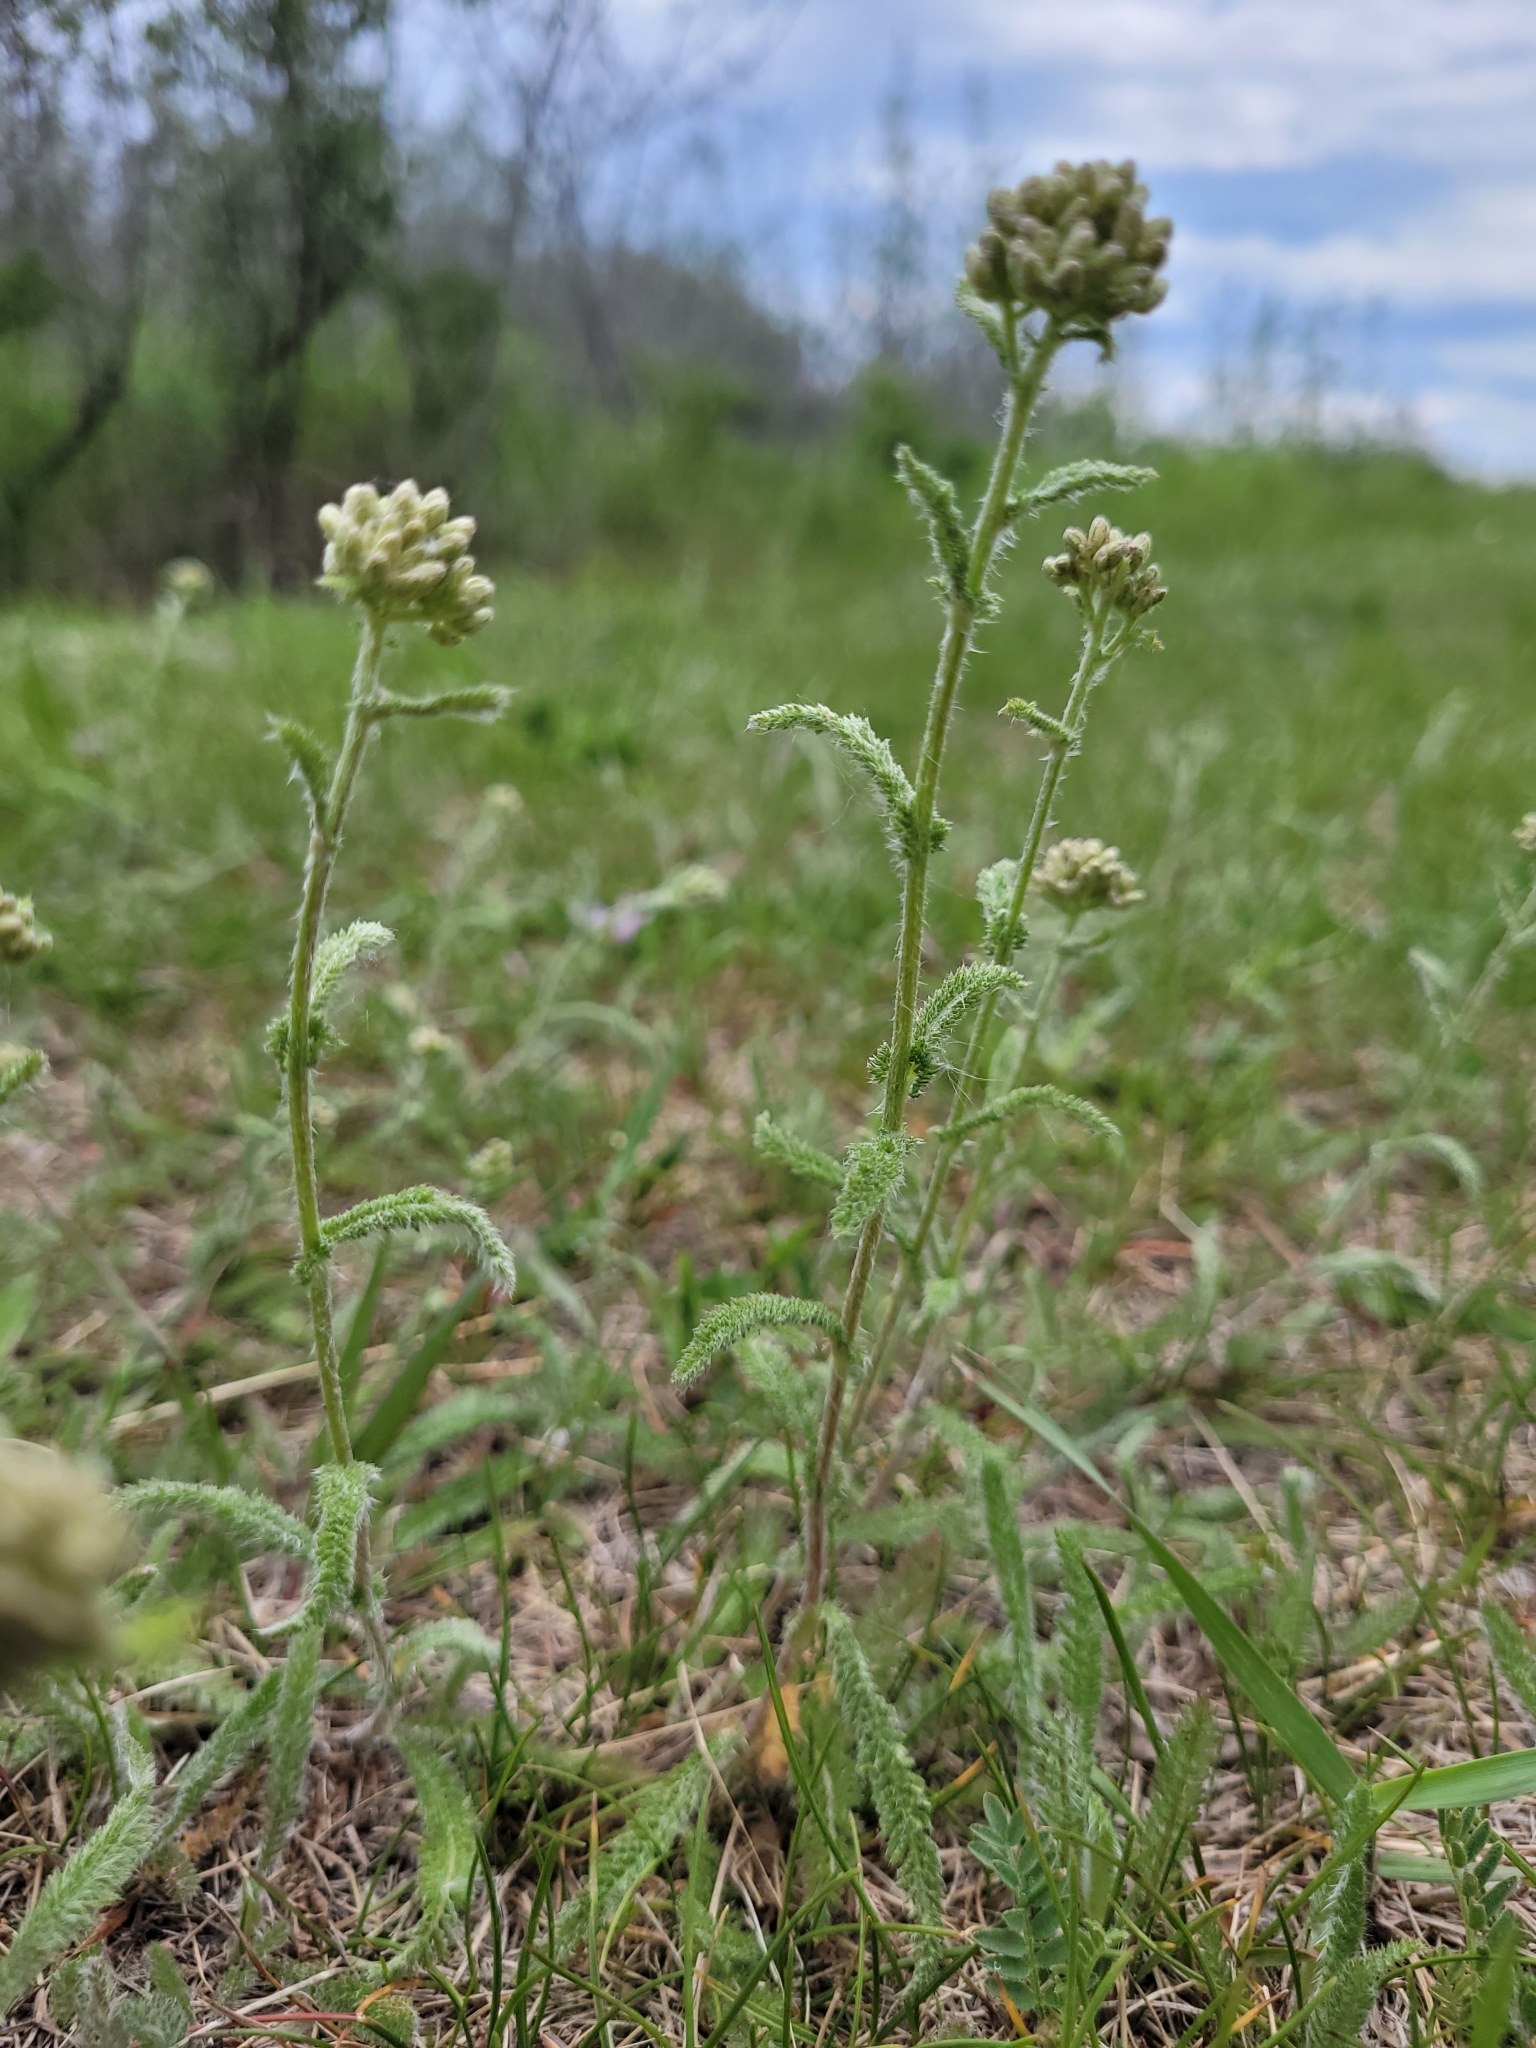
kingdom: Plantae
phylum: Tracheophyta
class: Magnoliopsida
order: Asterales
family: Asteraceae
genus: Achillea
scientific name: Achillea millefolium
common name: Yarrow
